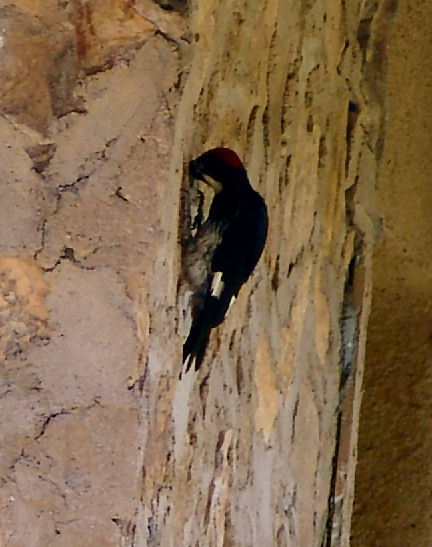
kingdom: Animalia
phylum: Chordata
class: Aves
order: Piciformes
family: Picidae
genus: Melanerpes
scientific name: Melanerpes formicivorus
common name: Acorn woodpecker
